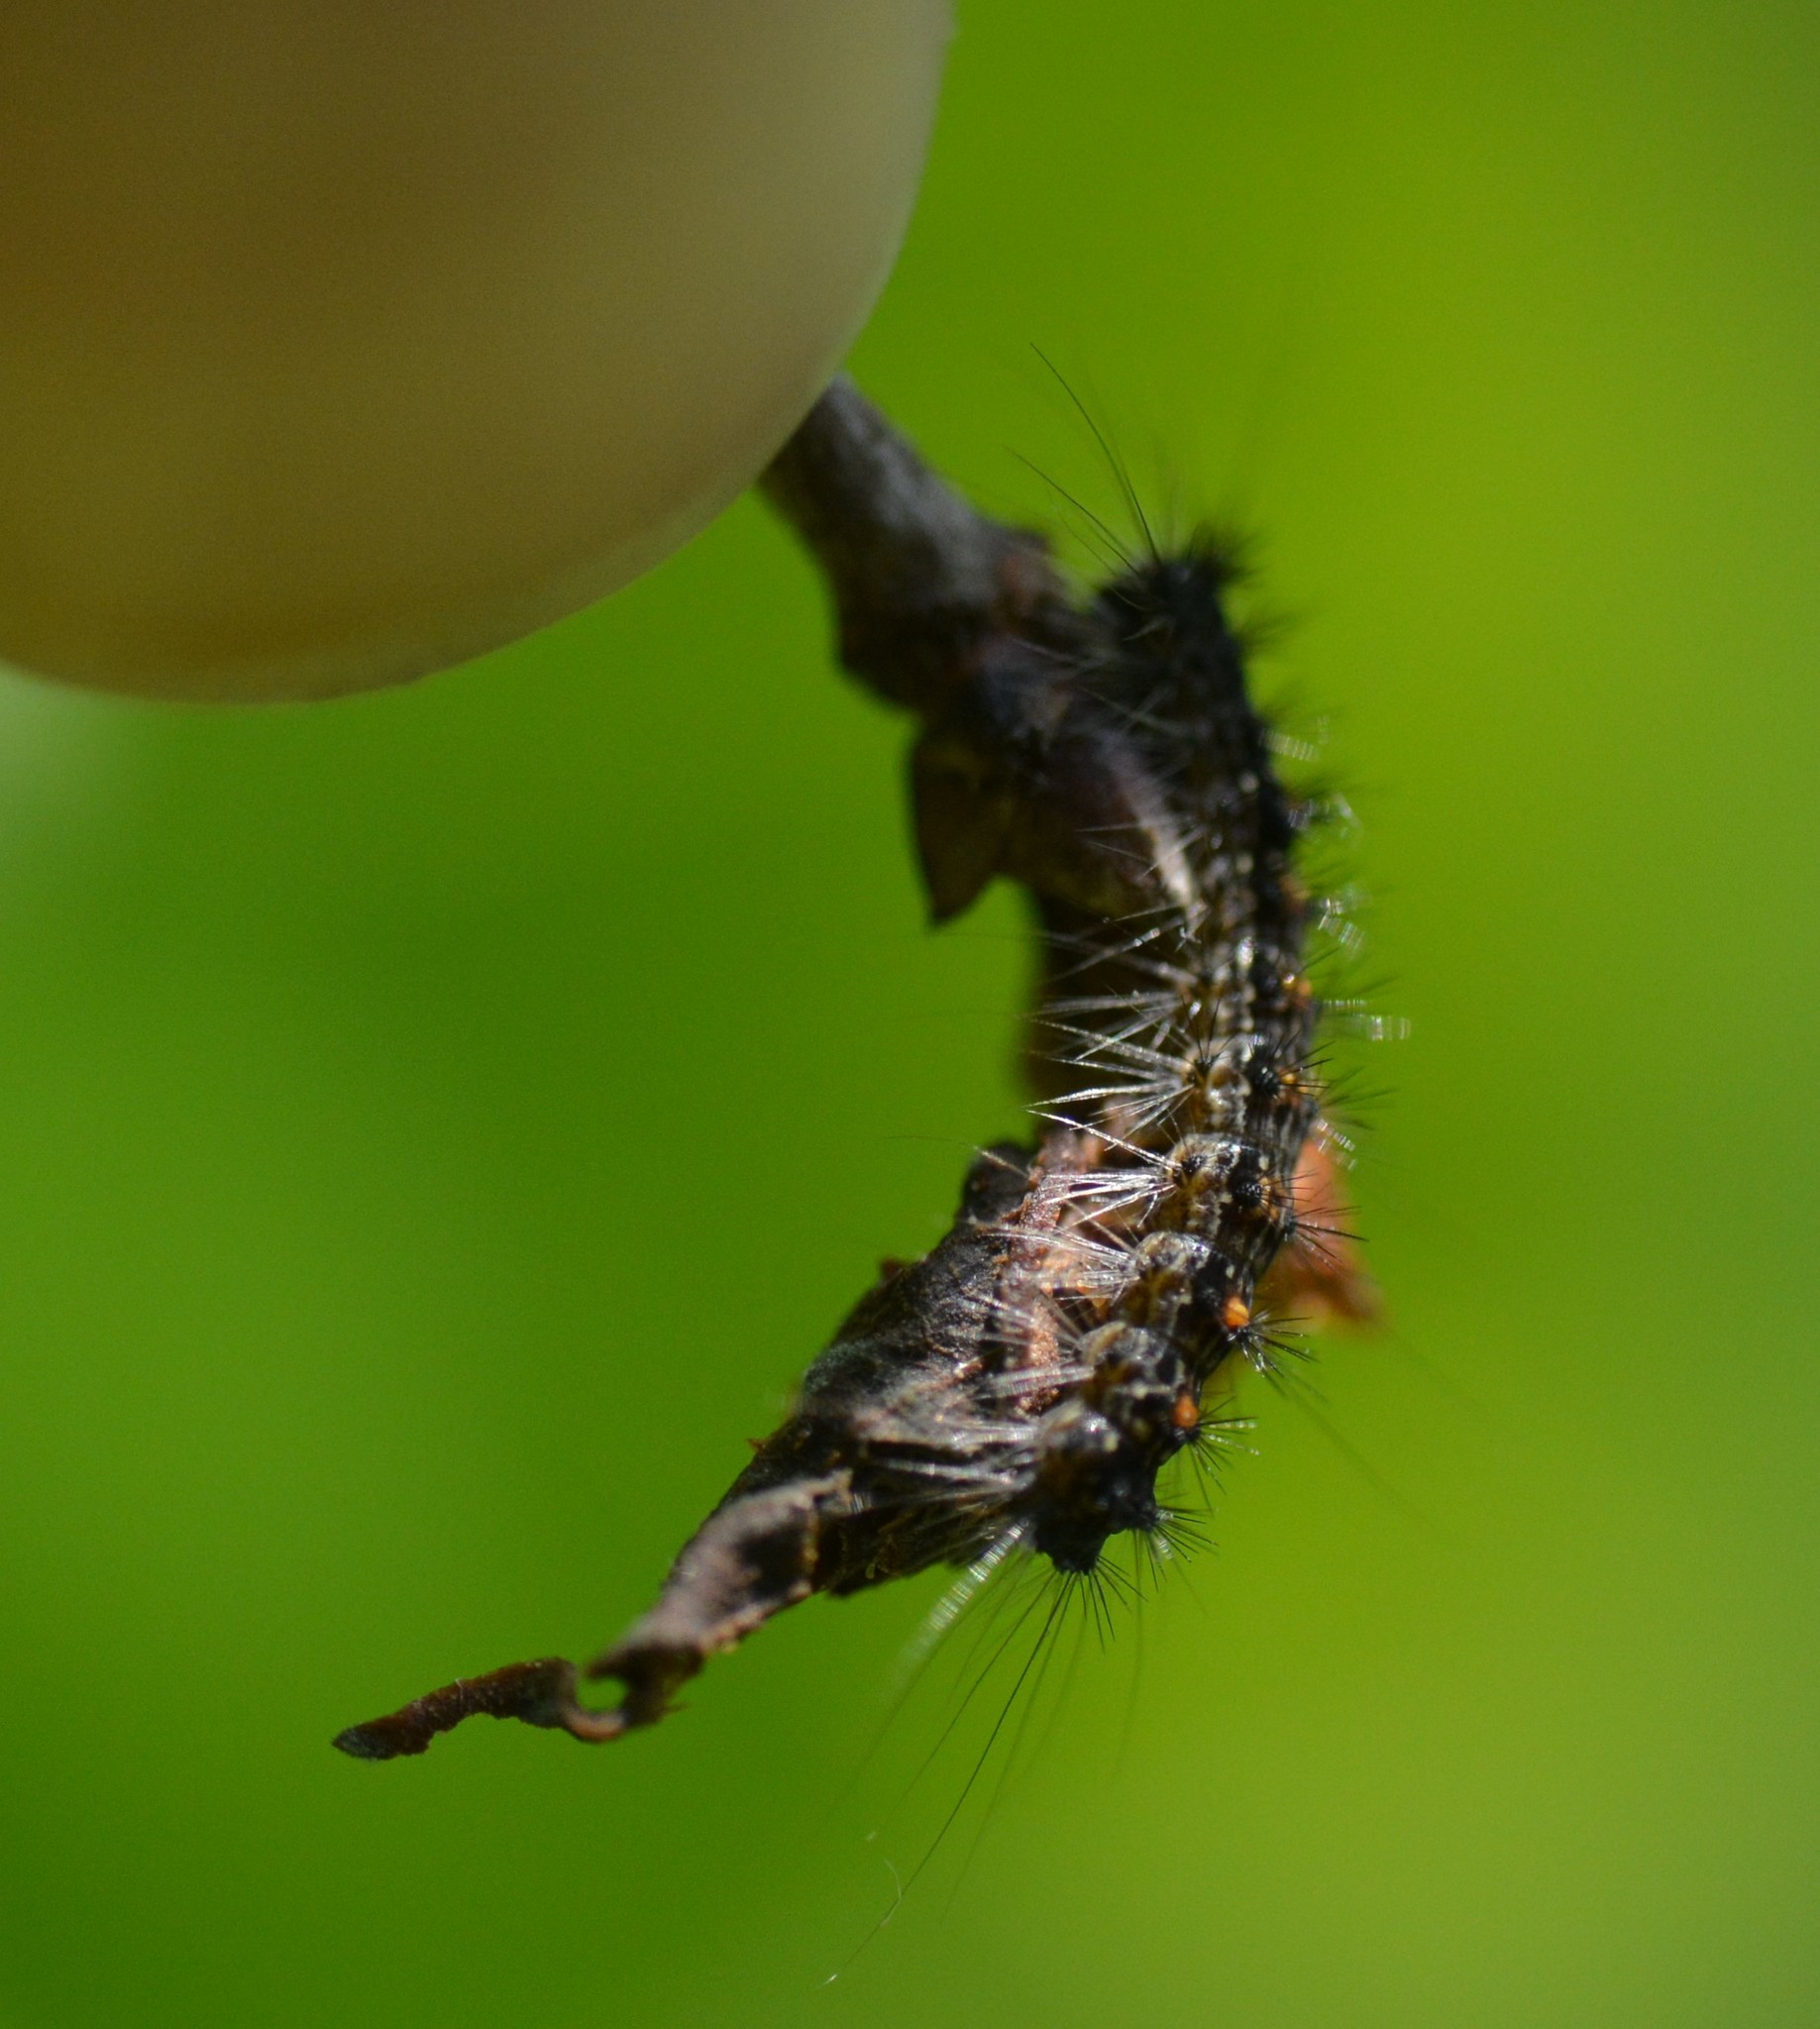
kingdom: Animalia
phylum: Arthropoda
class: Insecta
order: Lepidoptera
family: Erebidae
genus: Lymantria
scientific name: Lymantria dispar
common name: Gypsy moth
